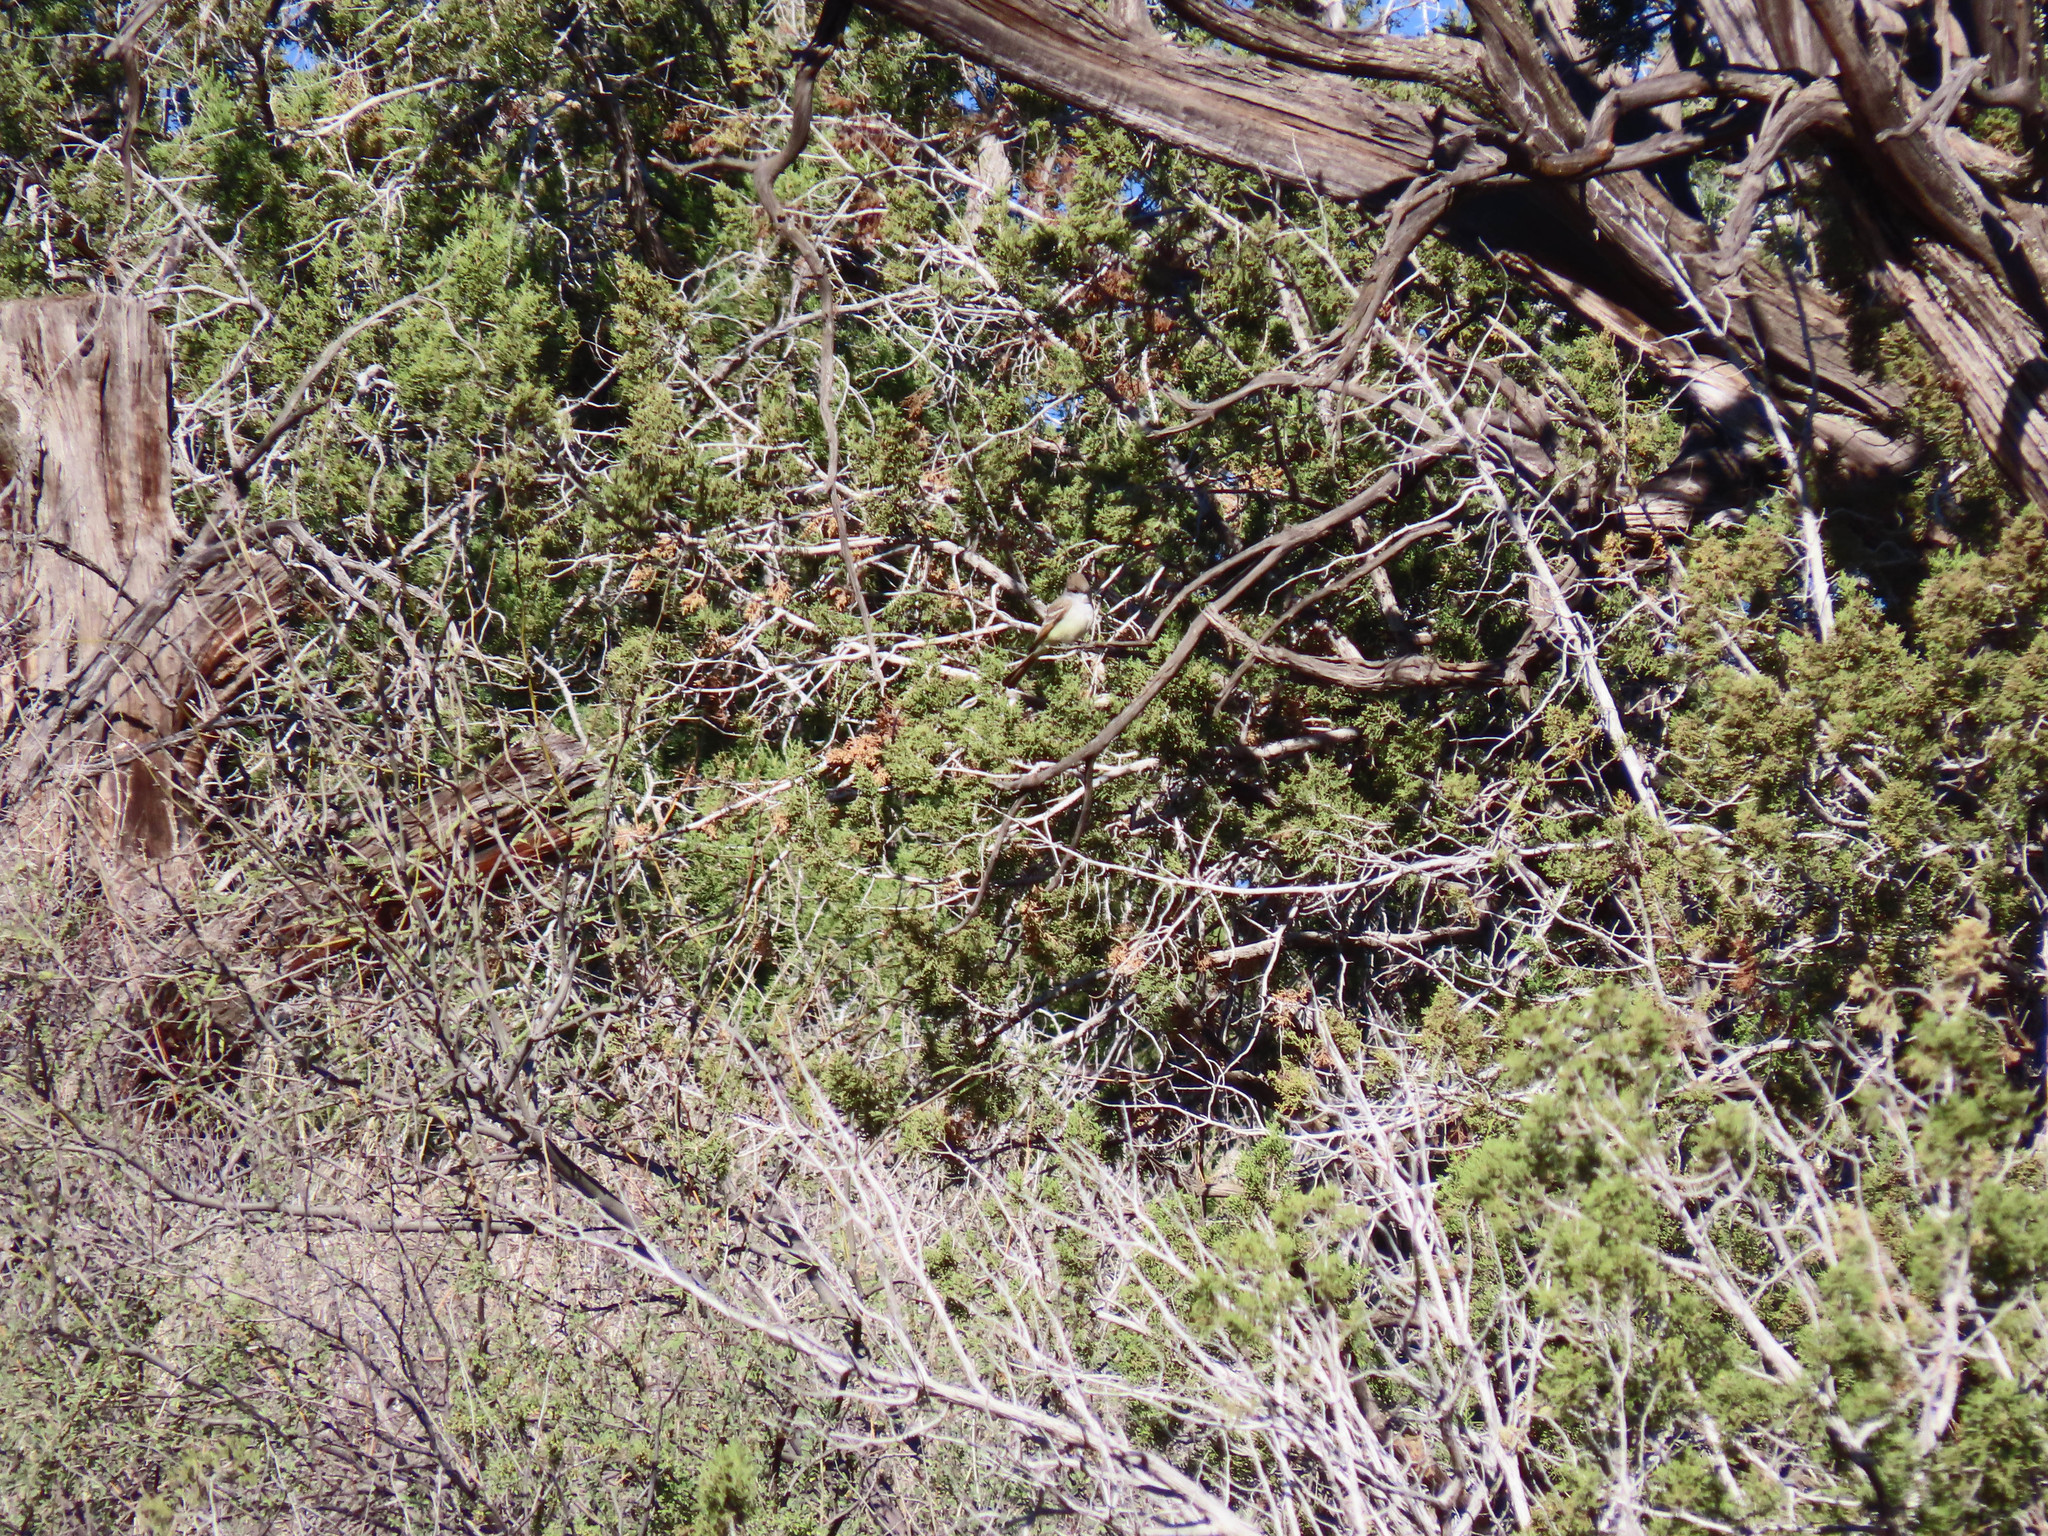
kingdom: Animalia
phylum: Chordata
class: Aves
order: Passeriformes
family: Tyrannidae
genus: Myiarchus
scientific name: Myiarchus cinerascens
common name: Ash-throated flycatcher
